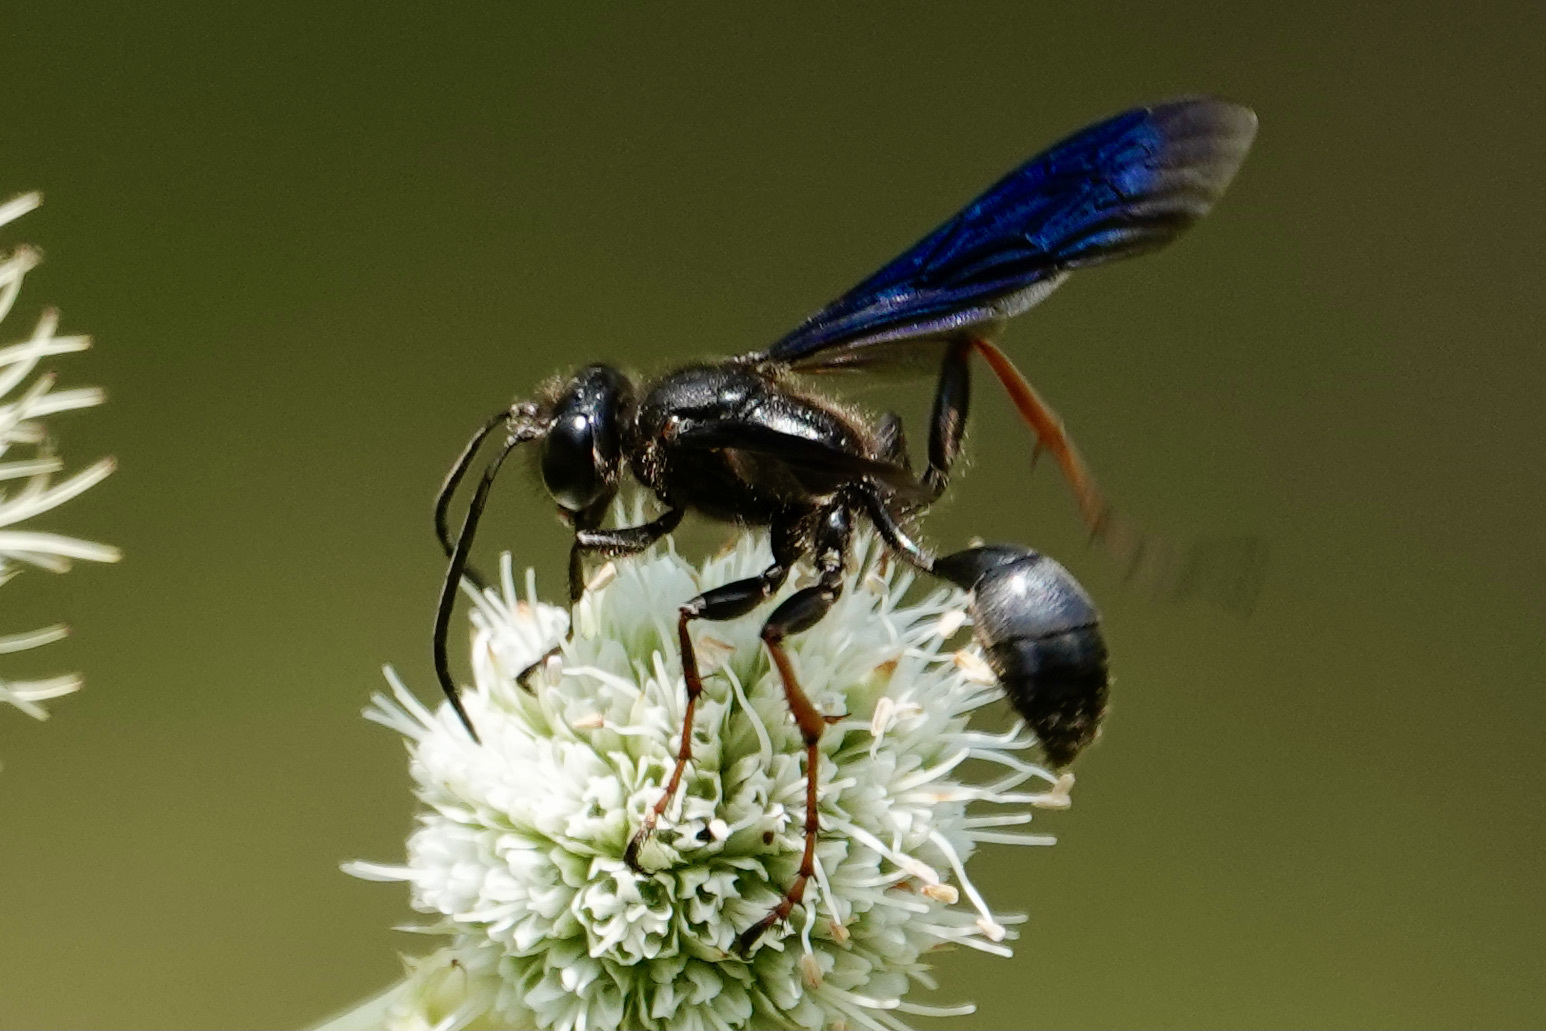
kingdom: Animalia
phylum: Arthropoda
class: Insecta
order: Hymenoptera
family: Sphecidae
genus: Isodontia
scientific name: Isodontia auripes
